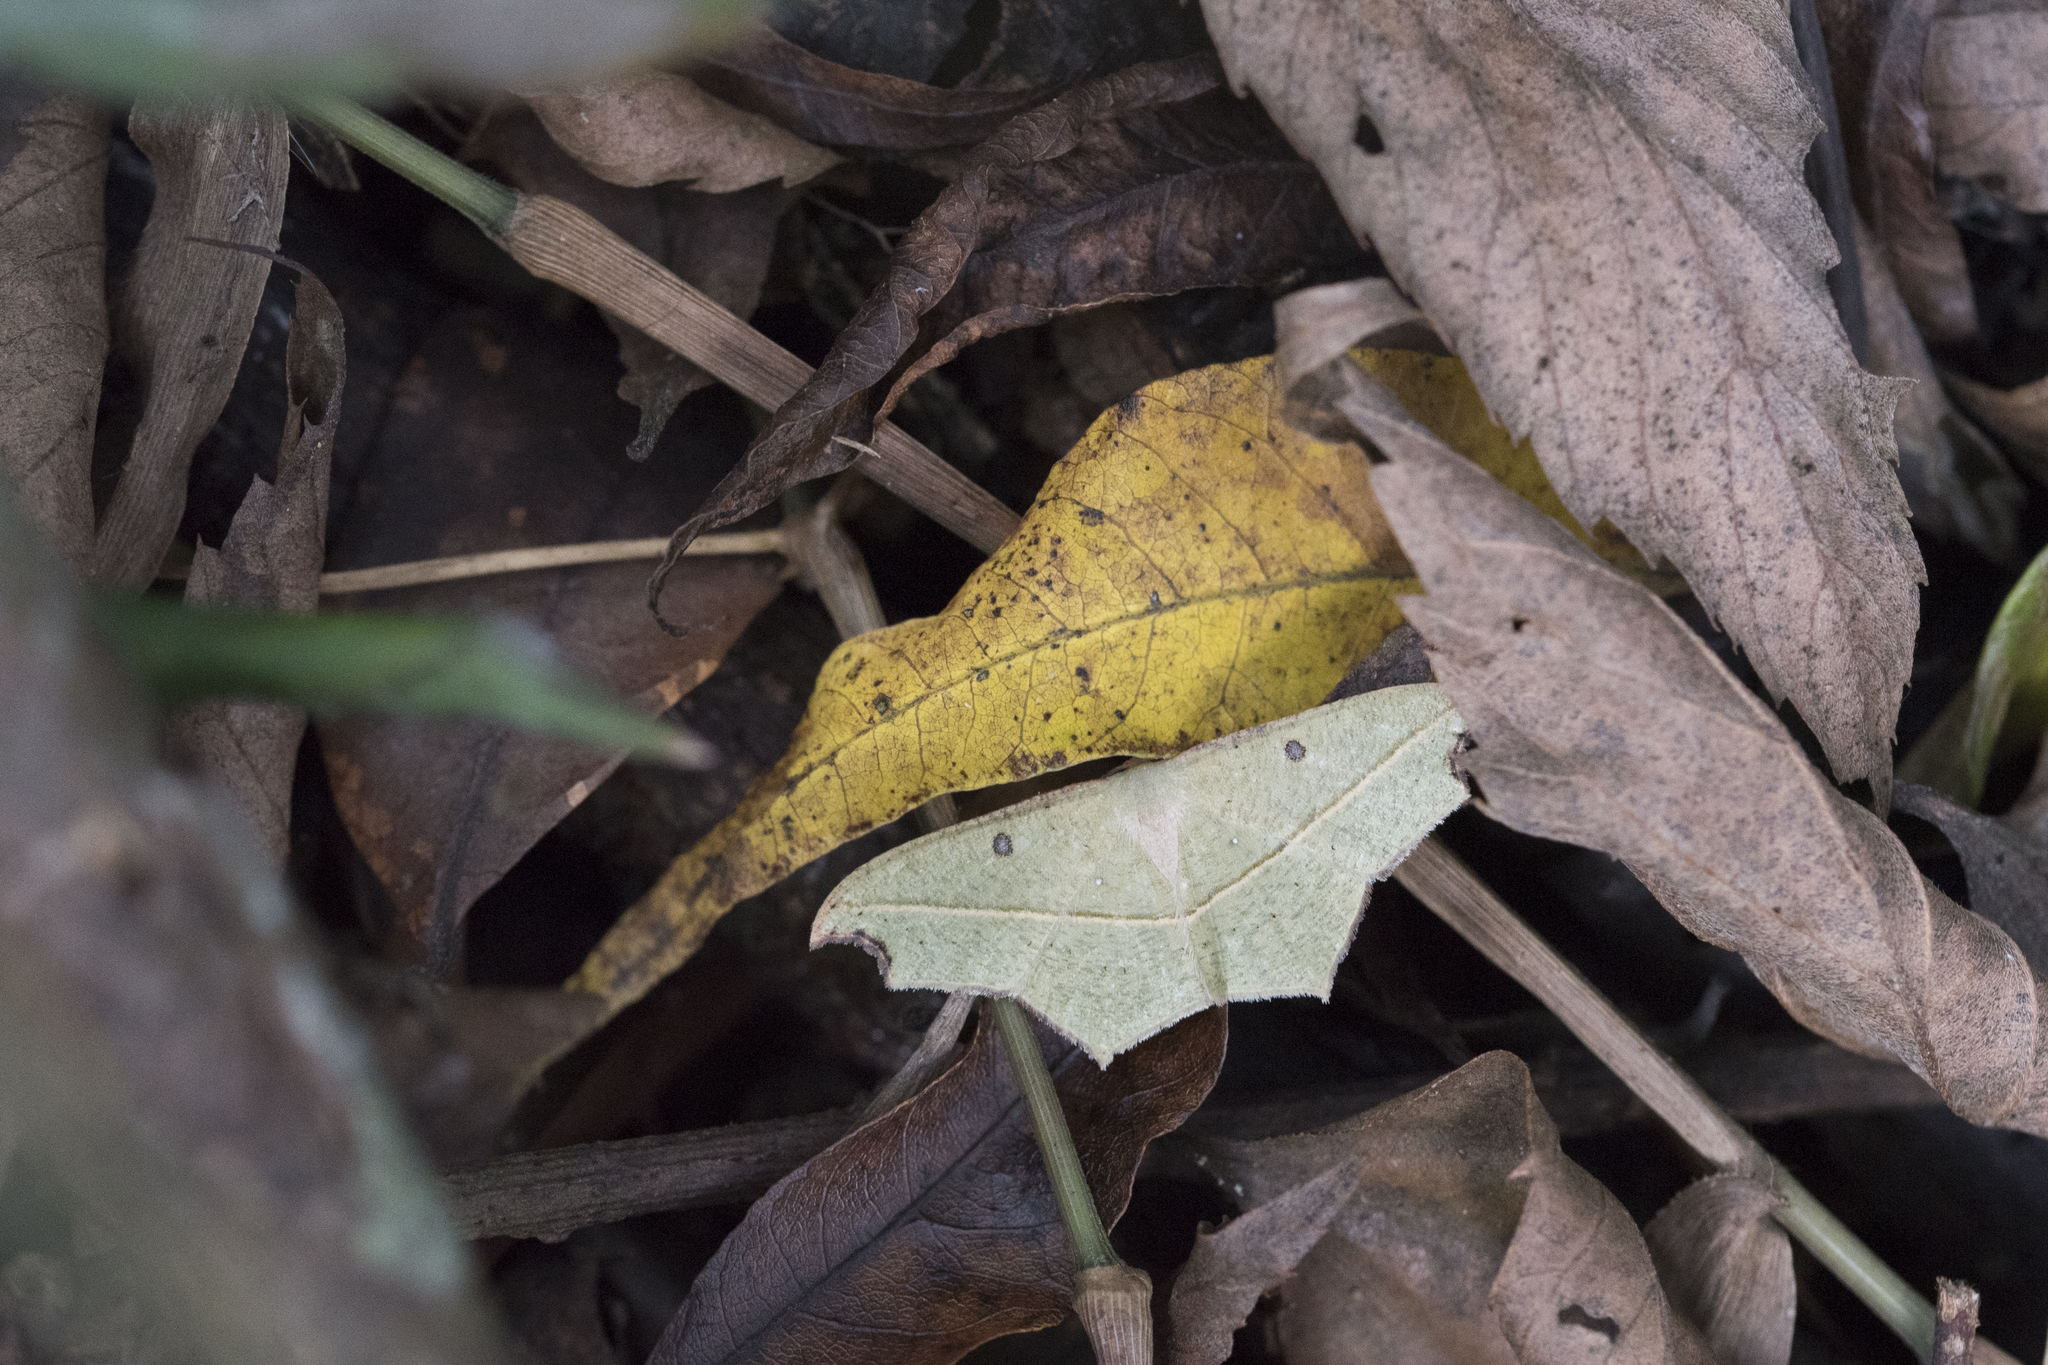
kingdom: Animalia
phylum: Arthropoda
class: Insecta
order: Lepidoptera
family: Geometridae
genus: Traminda
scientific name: Traminda aventiaria
